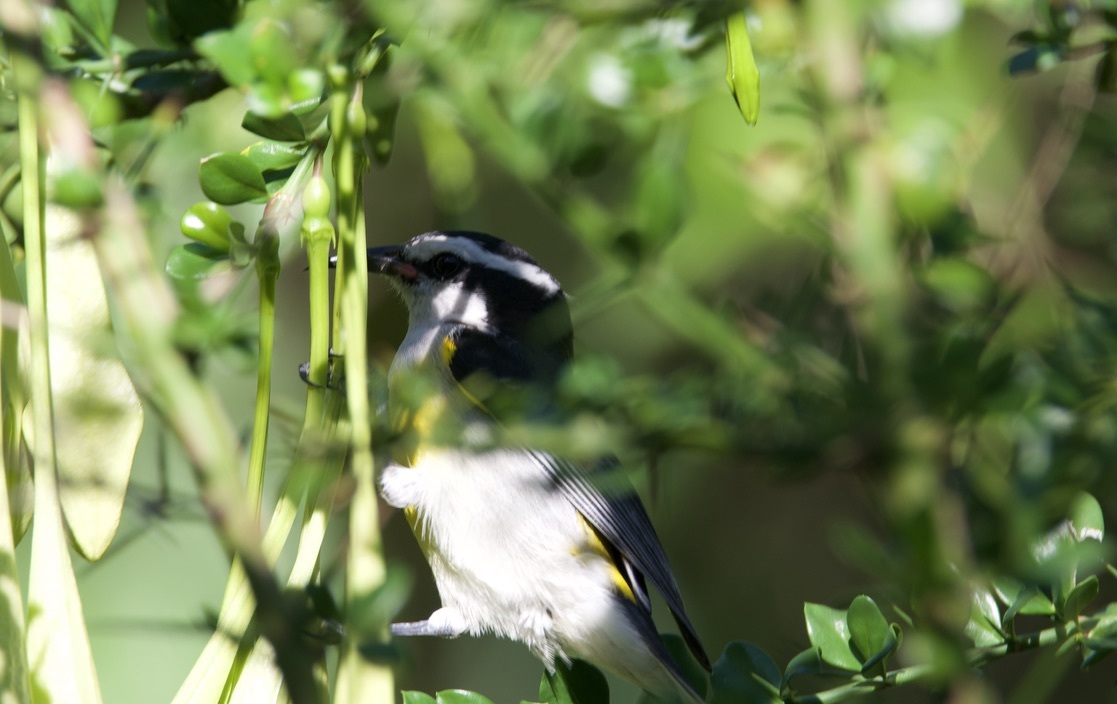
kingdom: Animalia
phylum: Chordata
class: Aves
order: Passeriformes
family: Thraupidae
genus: Coereba
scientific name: Coereba flaveola
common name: Bananaquit
